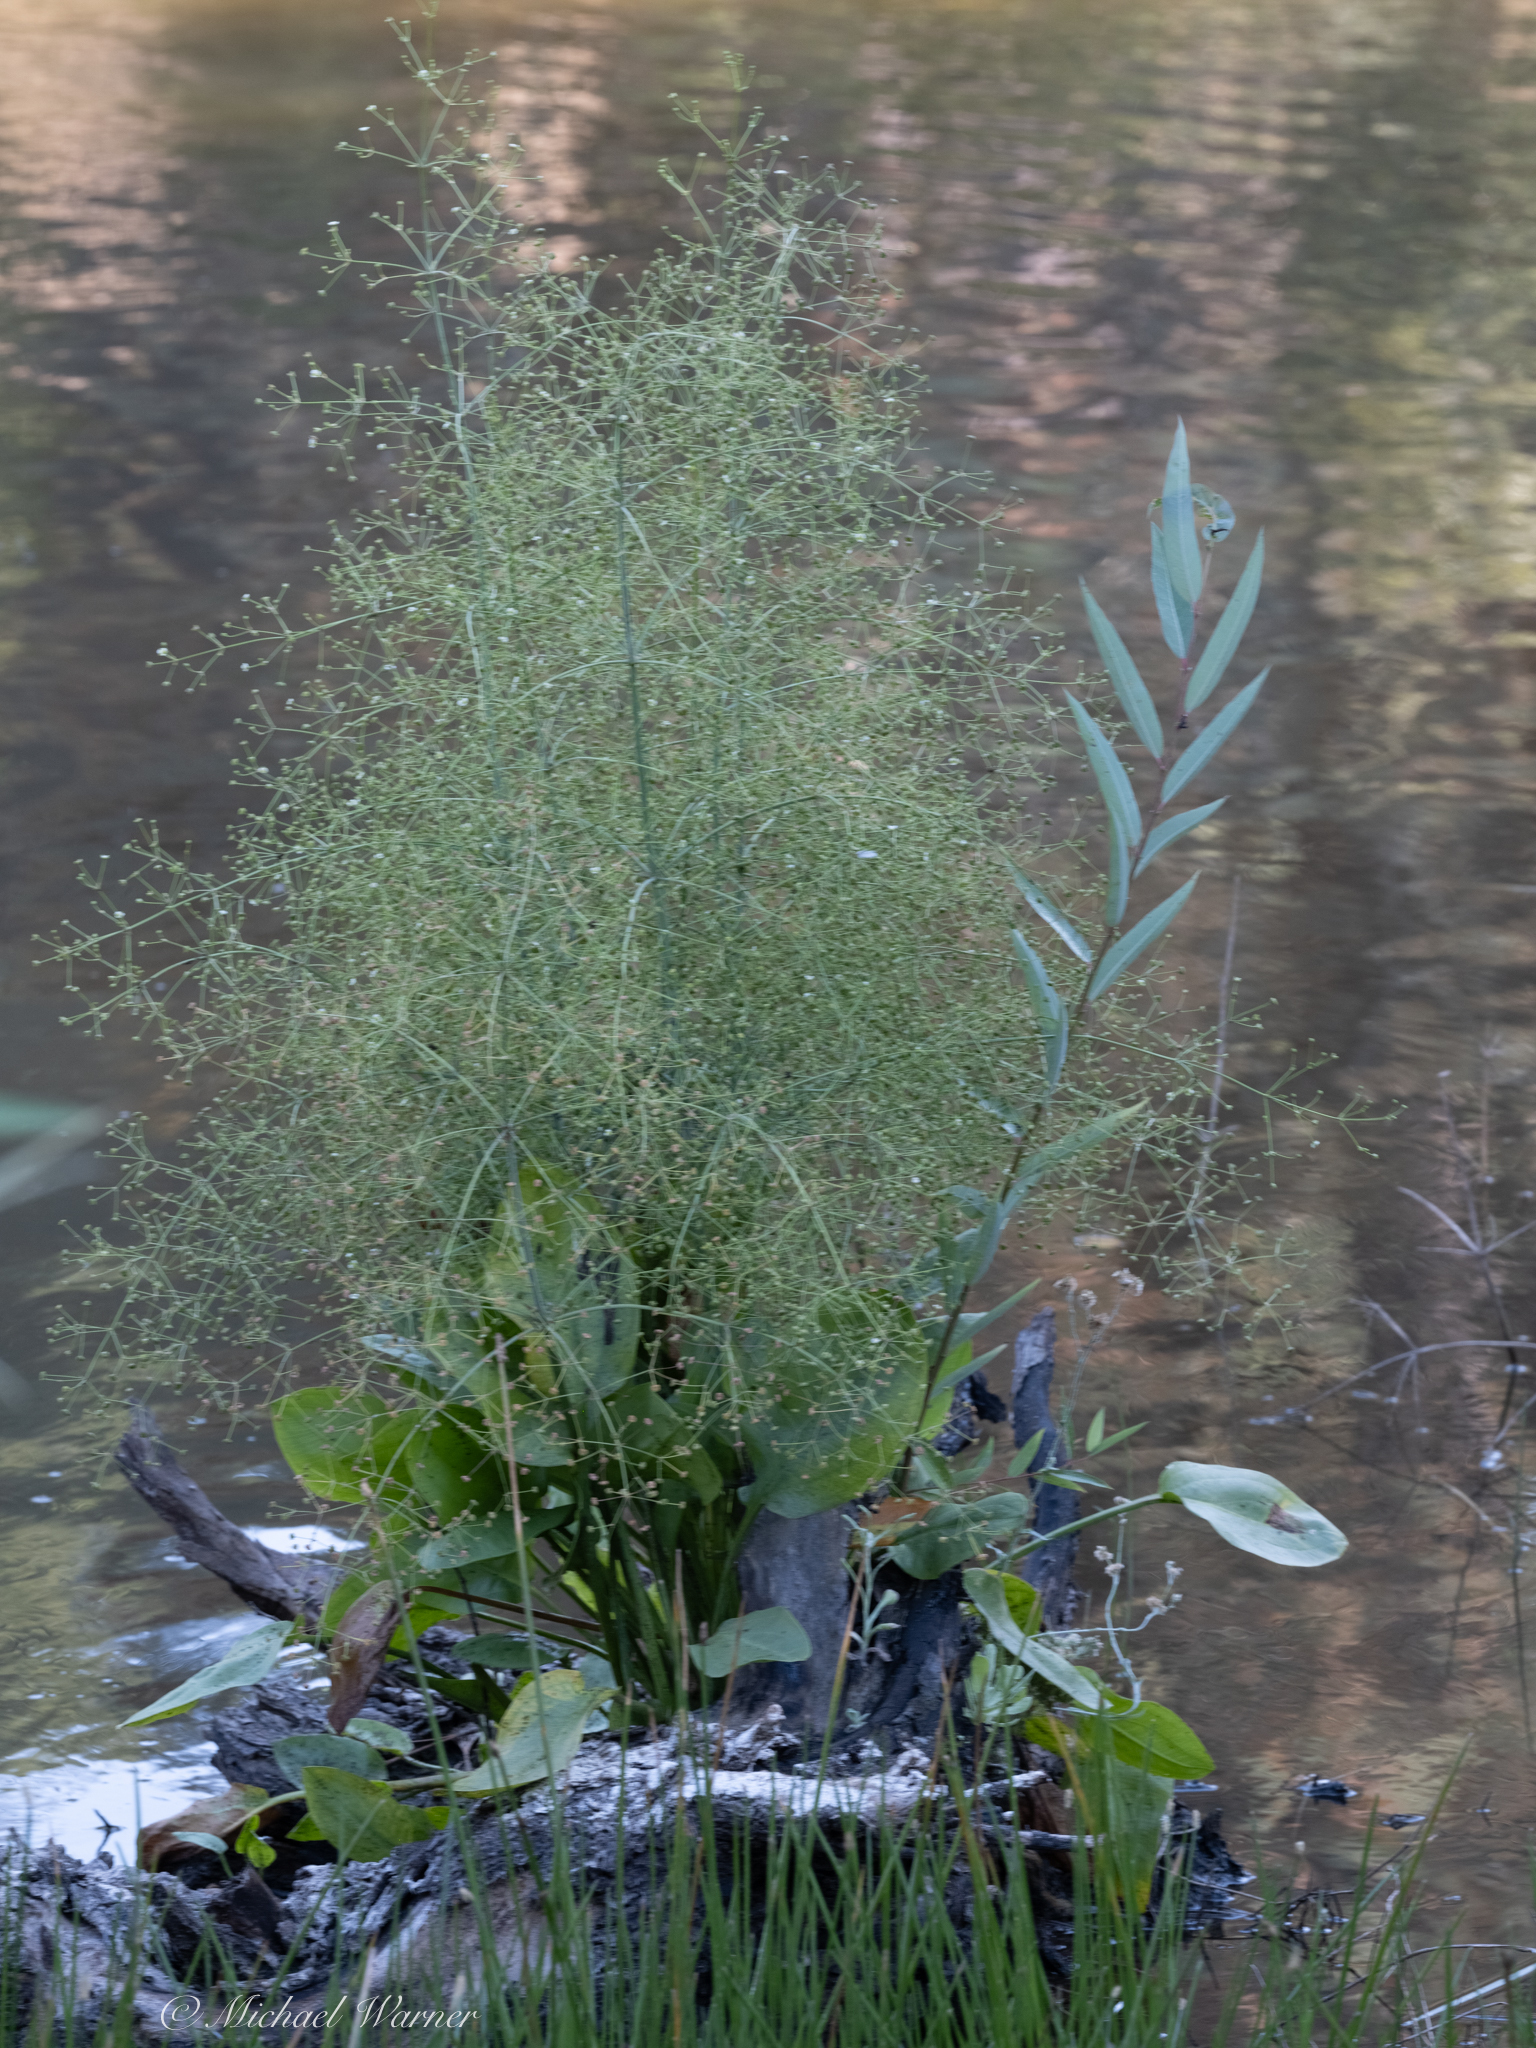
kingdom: Plantae
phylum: Tracheophyta
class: Liliopsida
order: Alismatales
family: Alismataceae
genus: Alisma
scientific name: Alisma triviale
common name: Northern water-plantain
